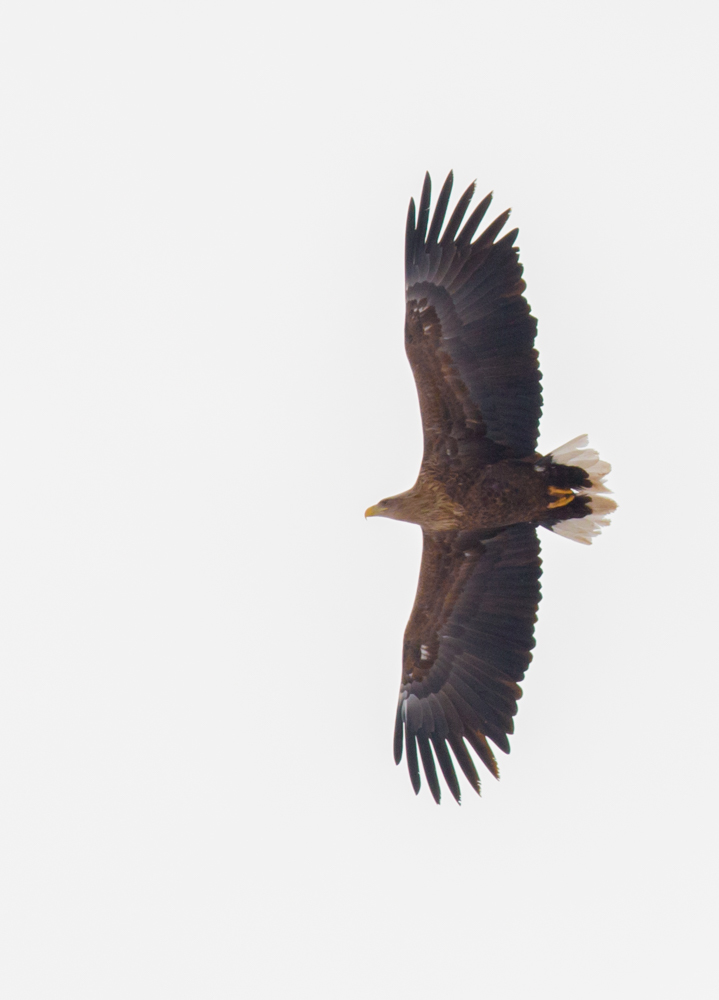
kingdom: Animalia
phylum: Chordata
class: Aves
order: Accipitriformes
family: Accipitridae
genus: Haliaeetus
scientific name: Haliaeetus albicilla
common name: White-tailed eagle
